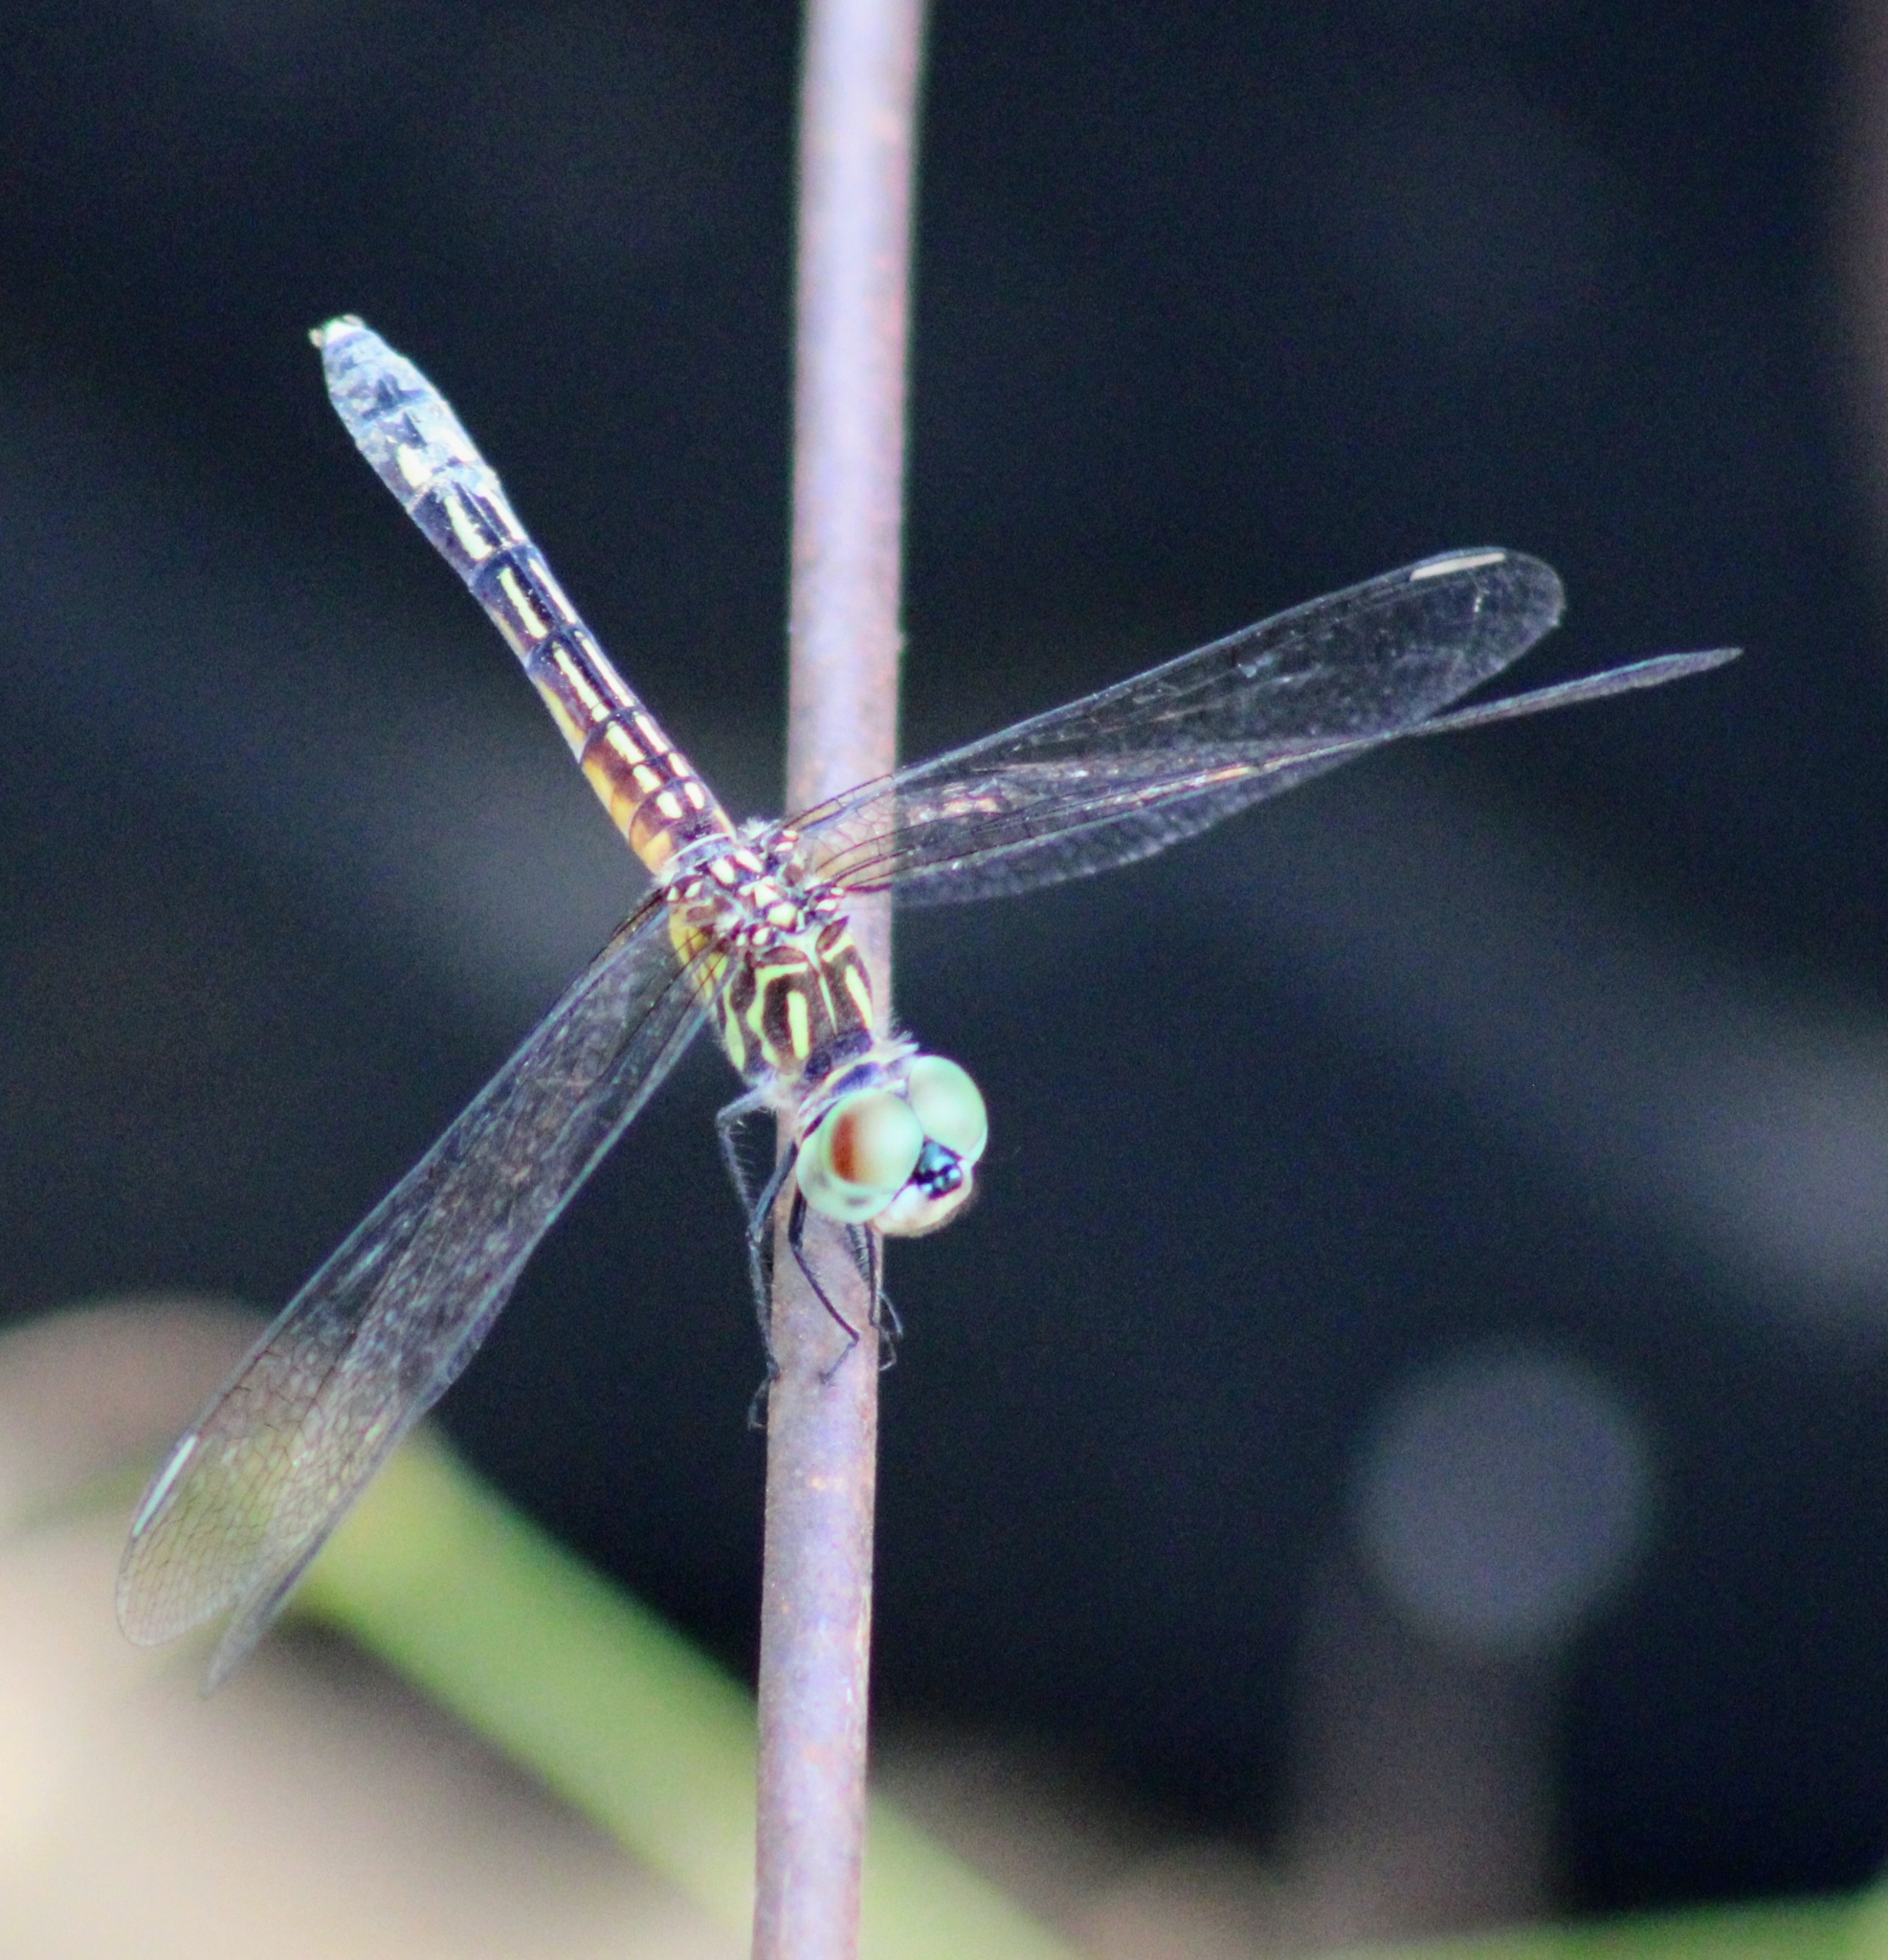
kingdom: Animalia
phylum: Arthropoda
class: Insecta
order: Odonata
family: Libellulidae
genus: Pachydiplax
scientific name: Pachydiplax longipennis
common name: Blue dasher
